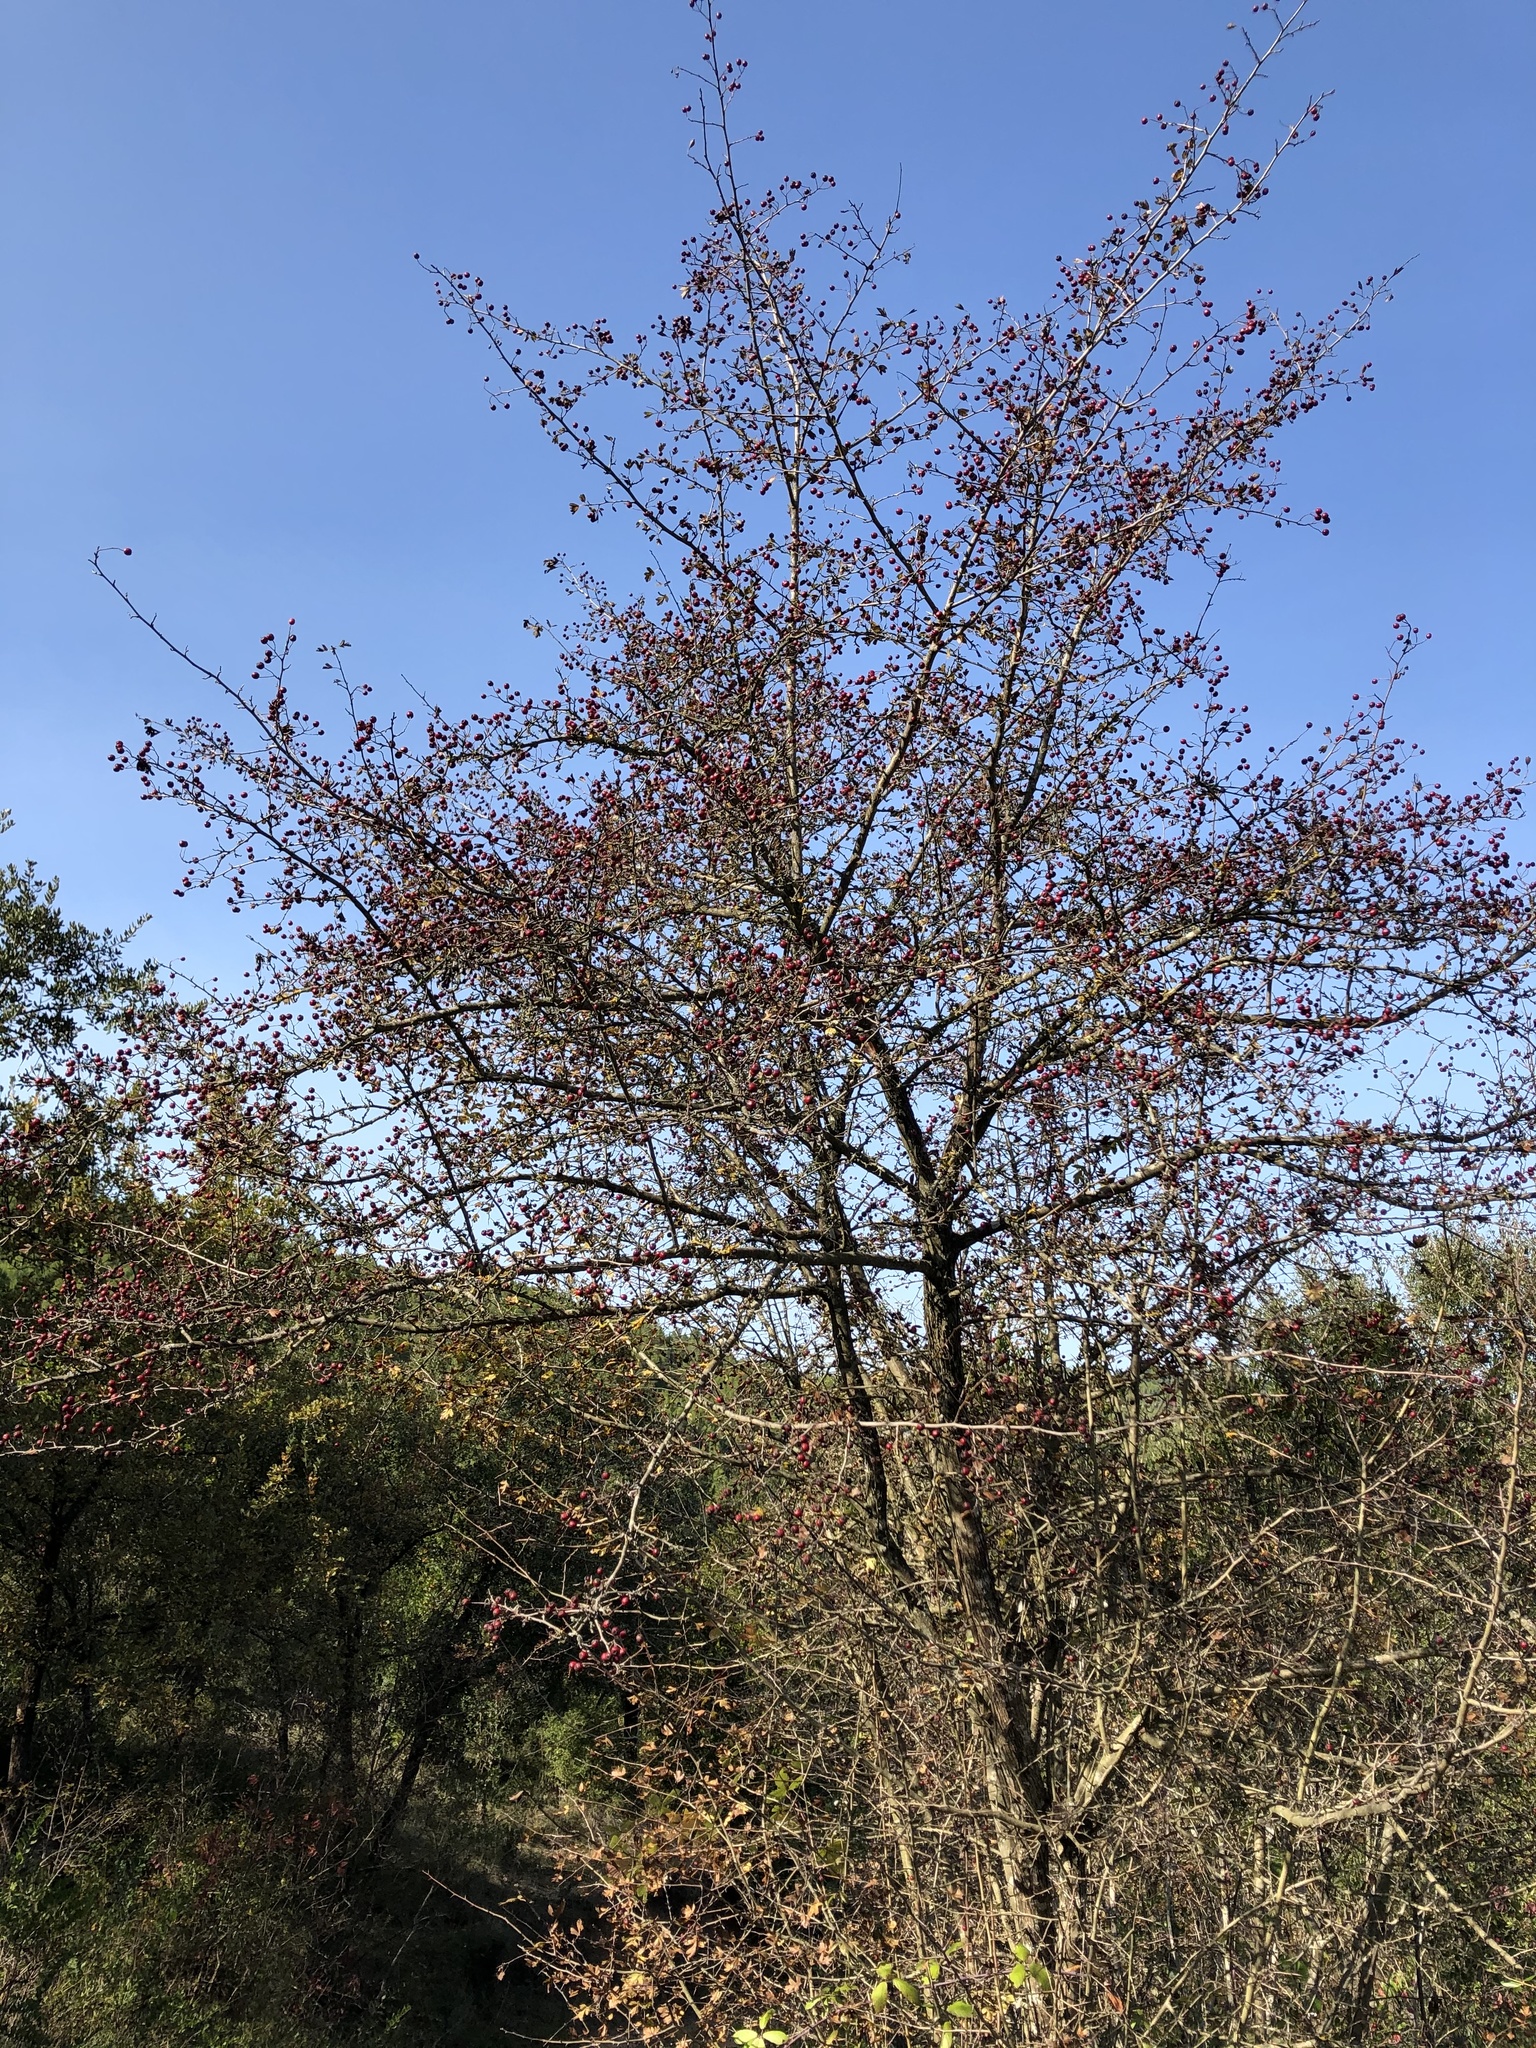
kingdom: Plantae
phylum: Tracheophyta
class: Magnoliopsida
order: Rosales
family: Rosaceae
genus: Crataegus
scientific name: Crataegus monogyna
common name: Hawthorn
